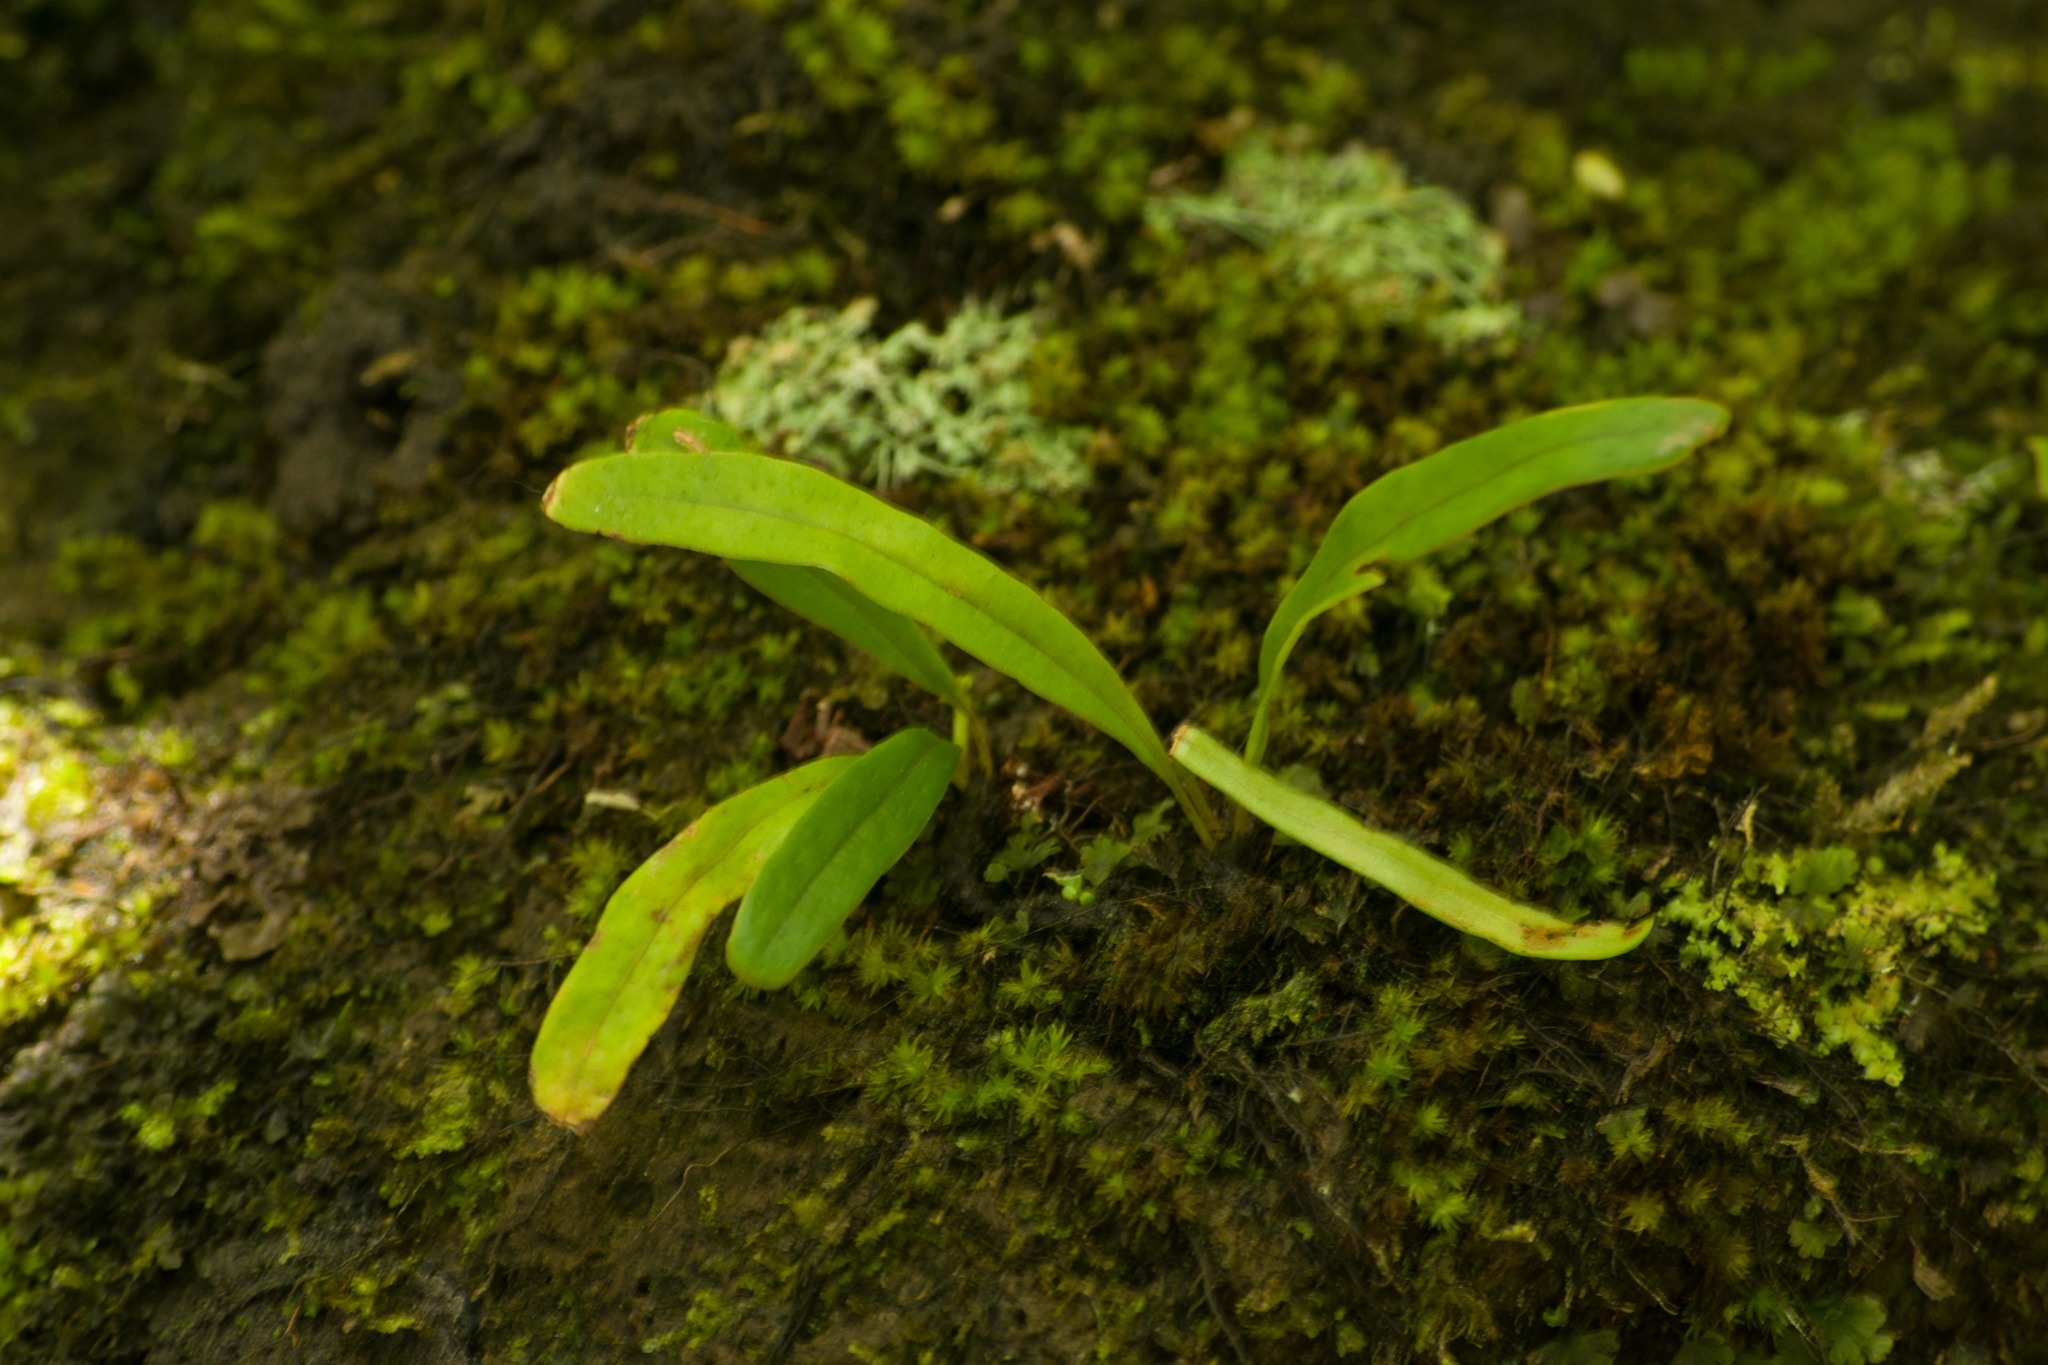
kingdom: Plantae
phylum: Tracheophyta
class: Polypodiopsida
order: Polypodiales
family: Polypodiaceae
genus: Lepisorus
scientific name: Lepisorus thunbergianus
